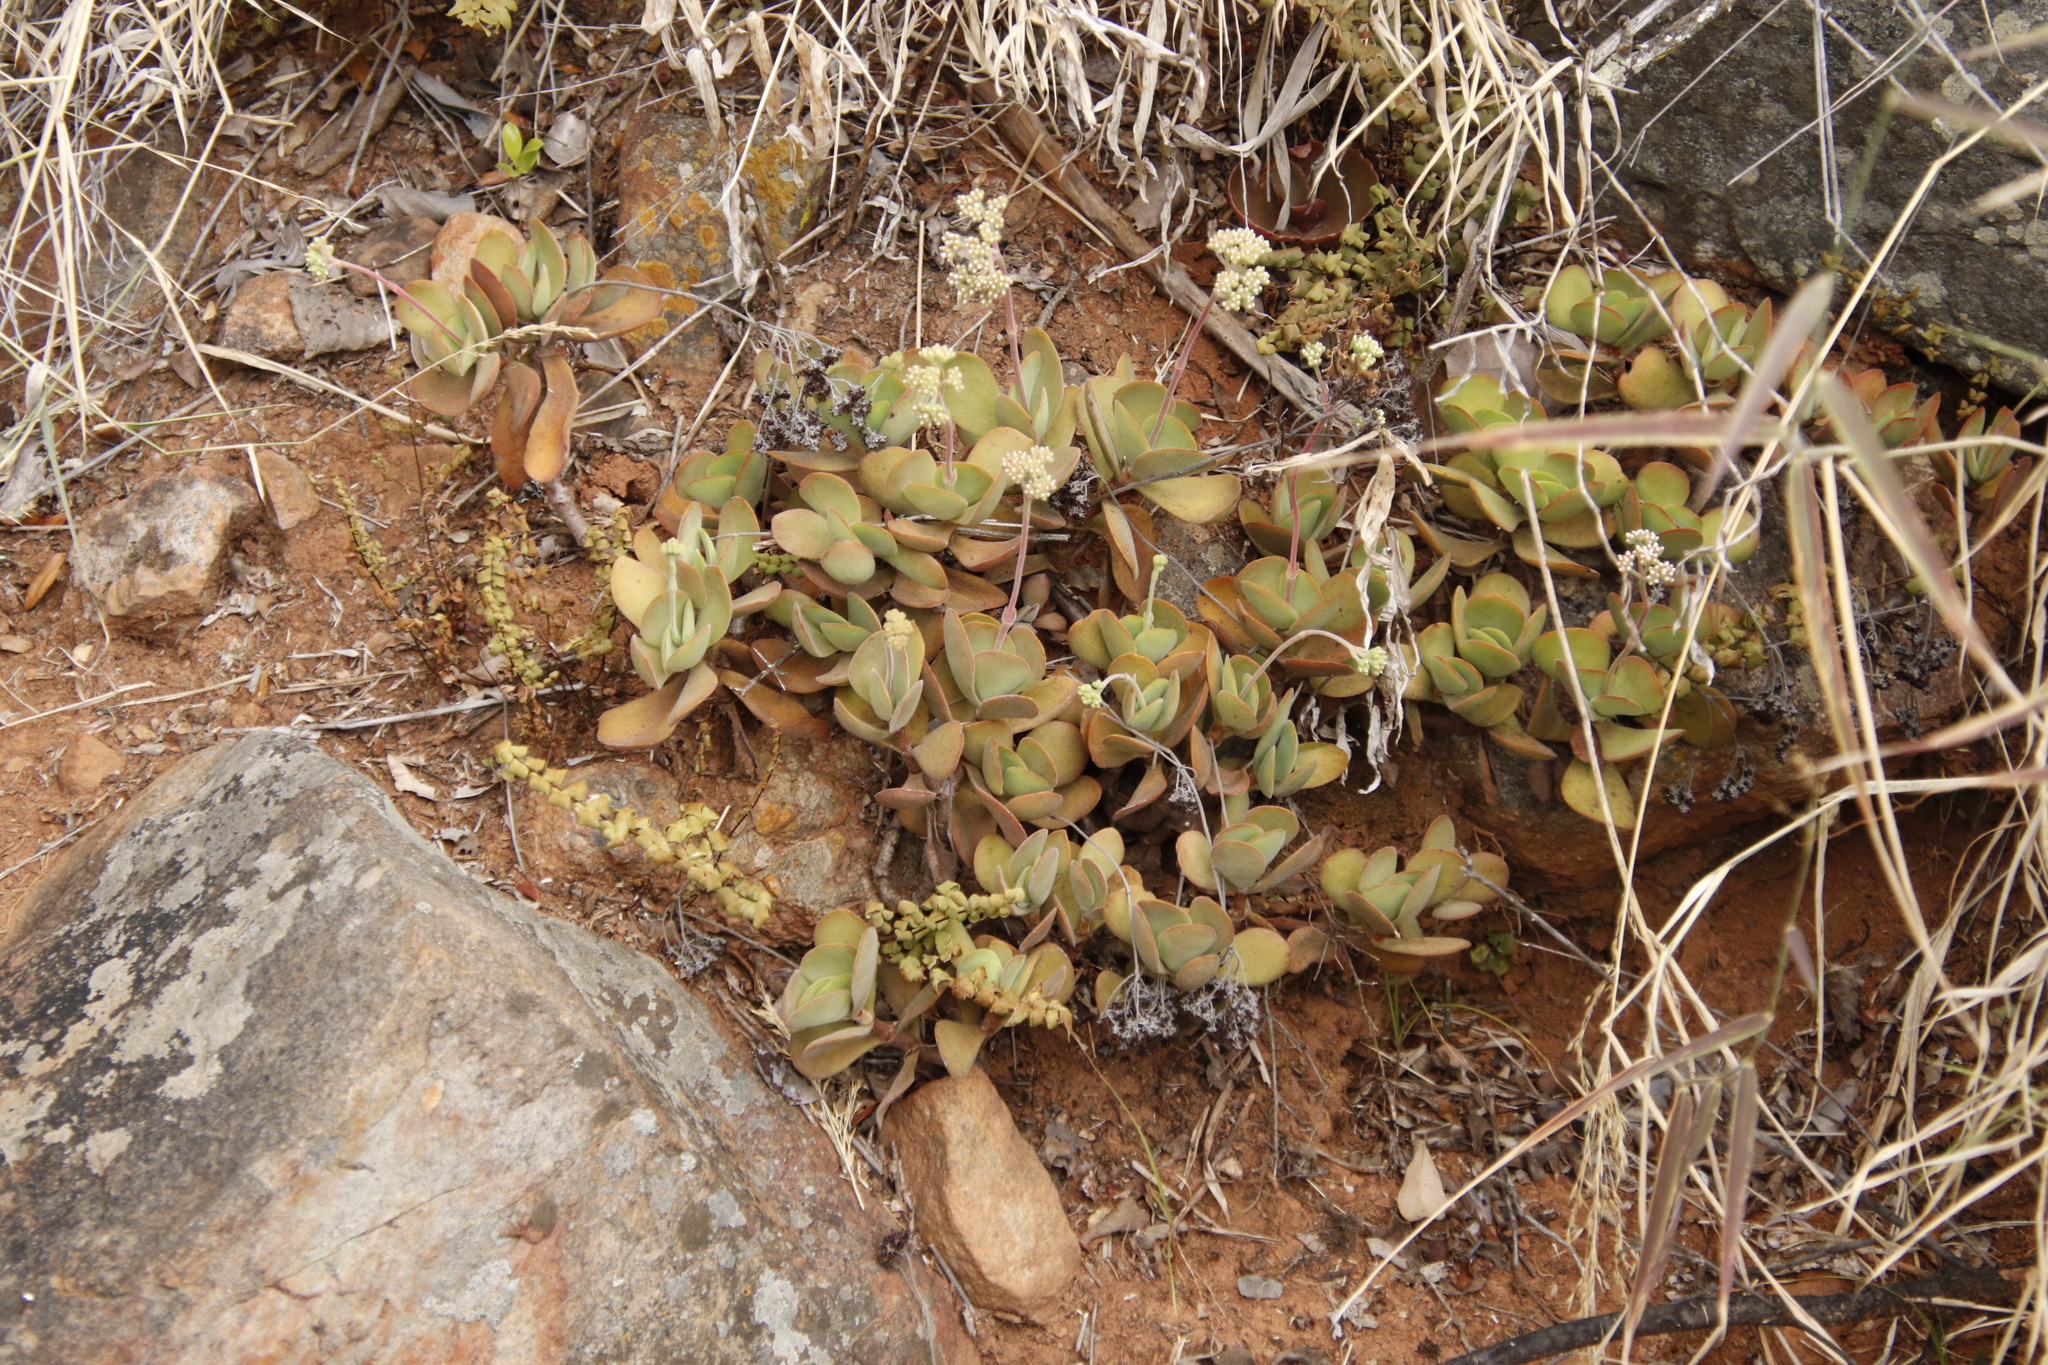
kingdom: Plantae
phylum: Tracheophyta
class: Magnoliopsida
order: Saxifragales
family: Crassulaceae
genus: Crassula
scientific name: Crassula globularioides
